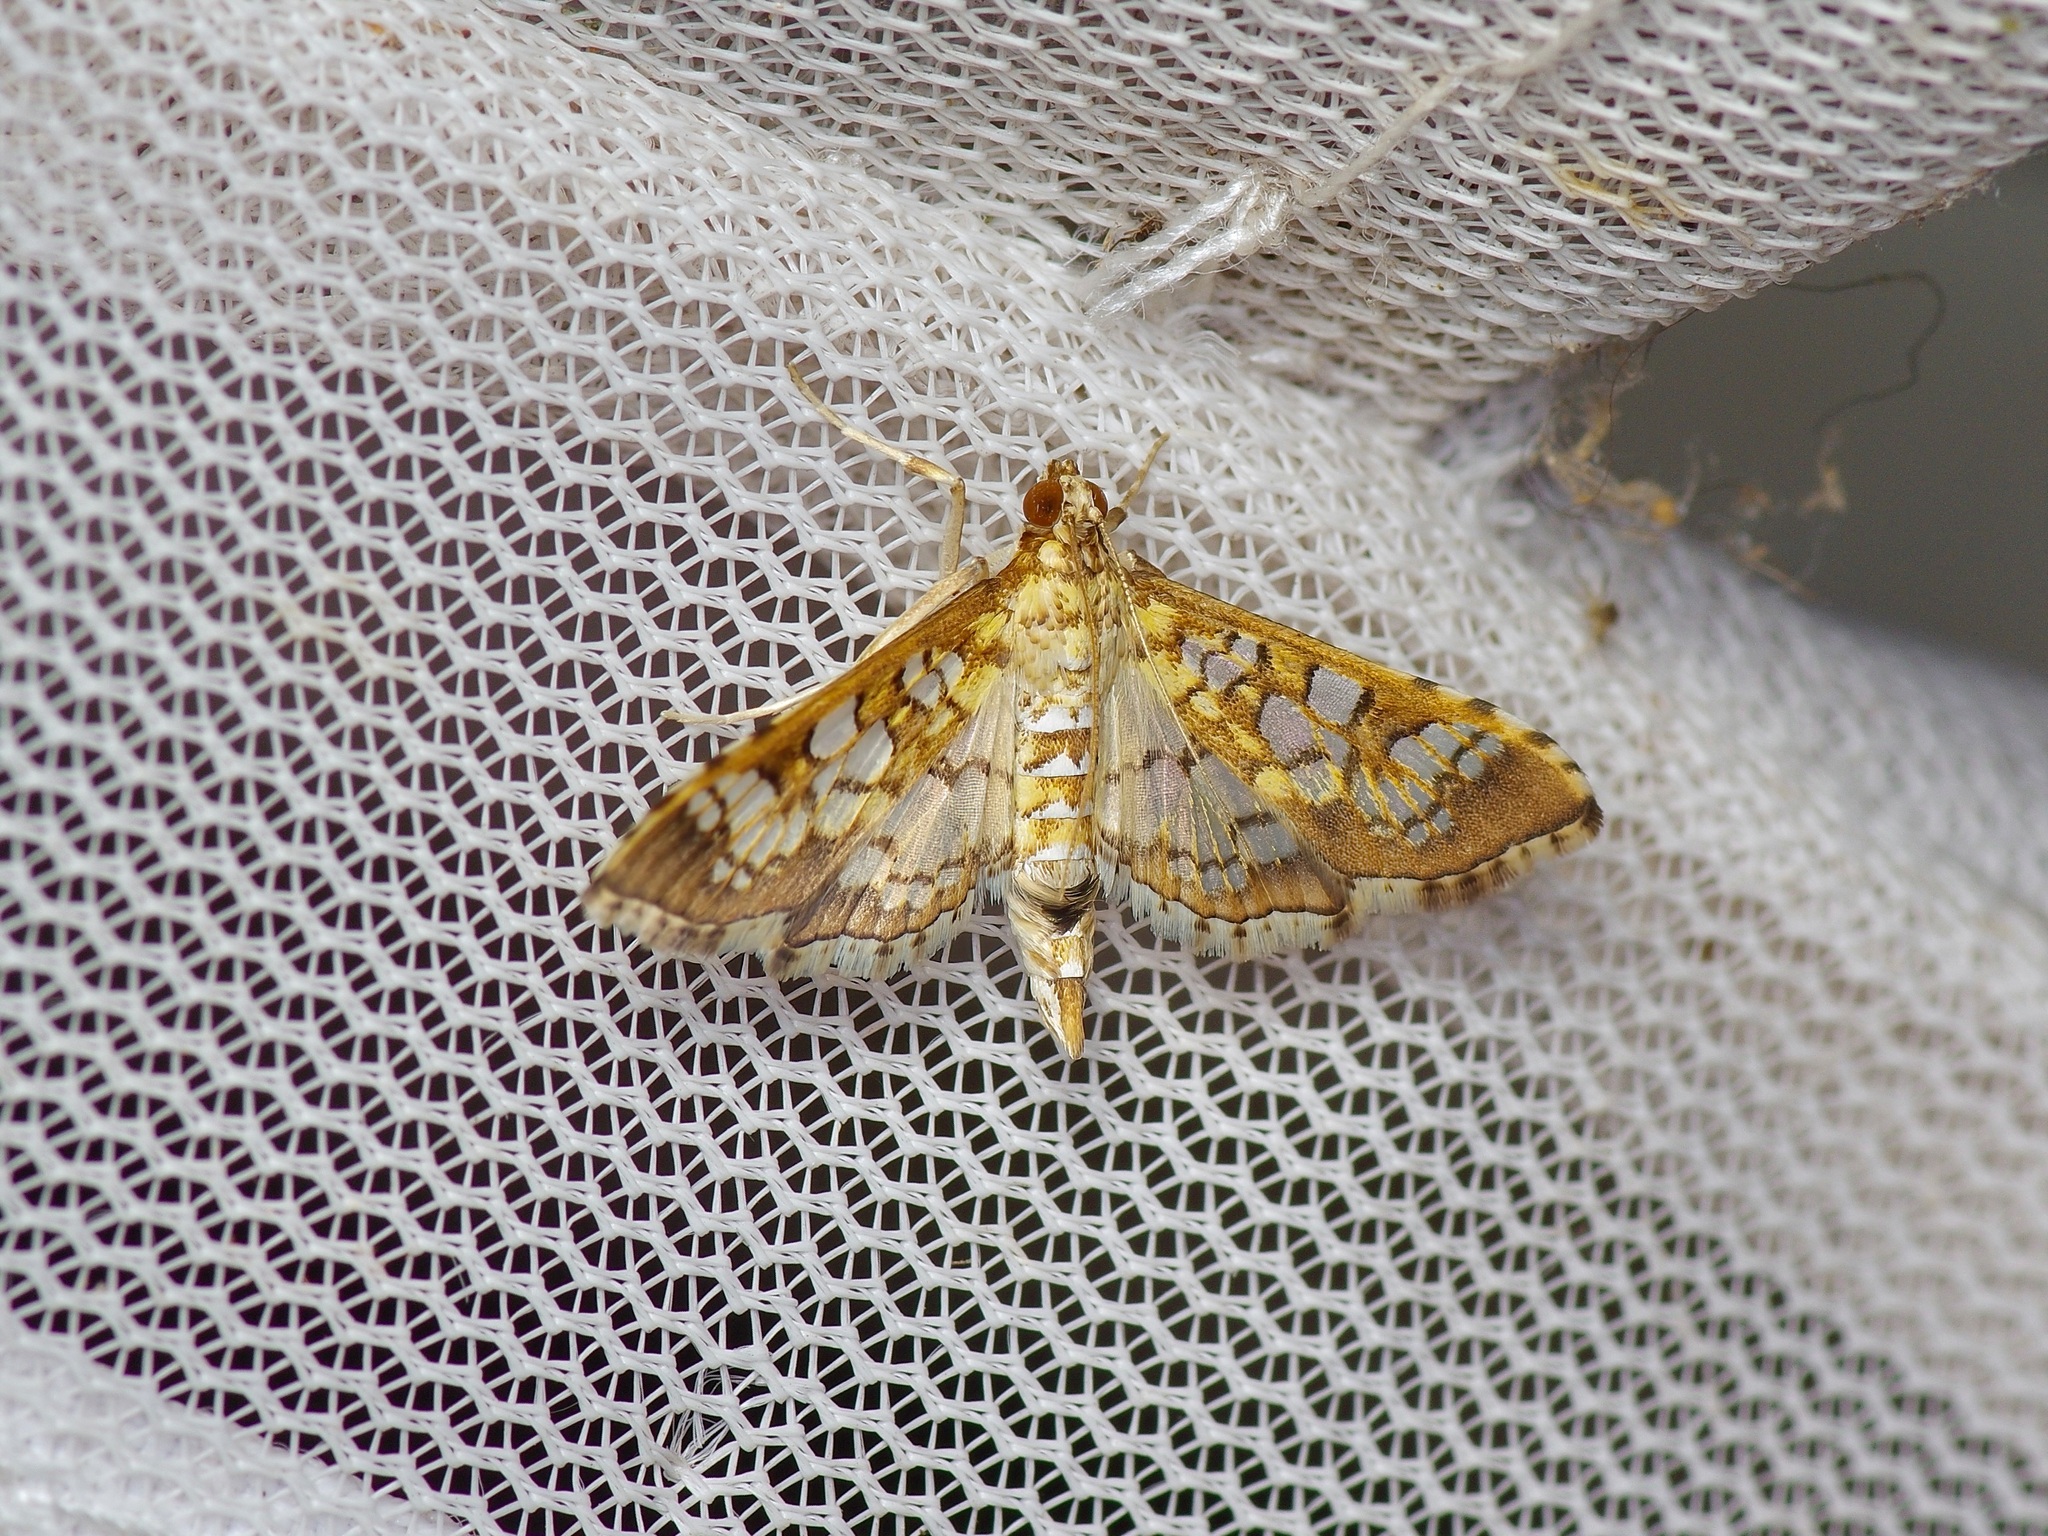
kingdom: Animalia
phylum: Arthropoda
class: Insecta
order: Lepidoptera
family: Crambidae
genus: Samea
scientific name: Samea ecclesialis
